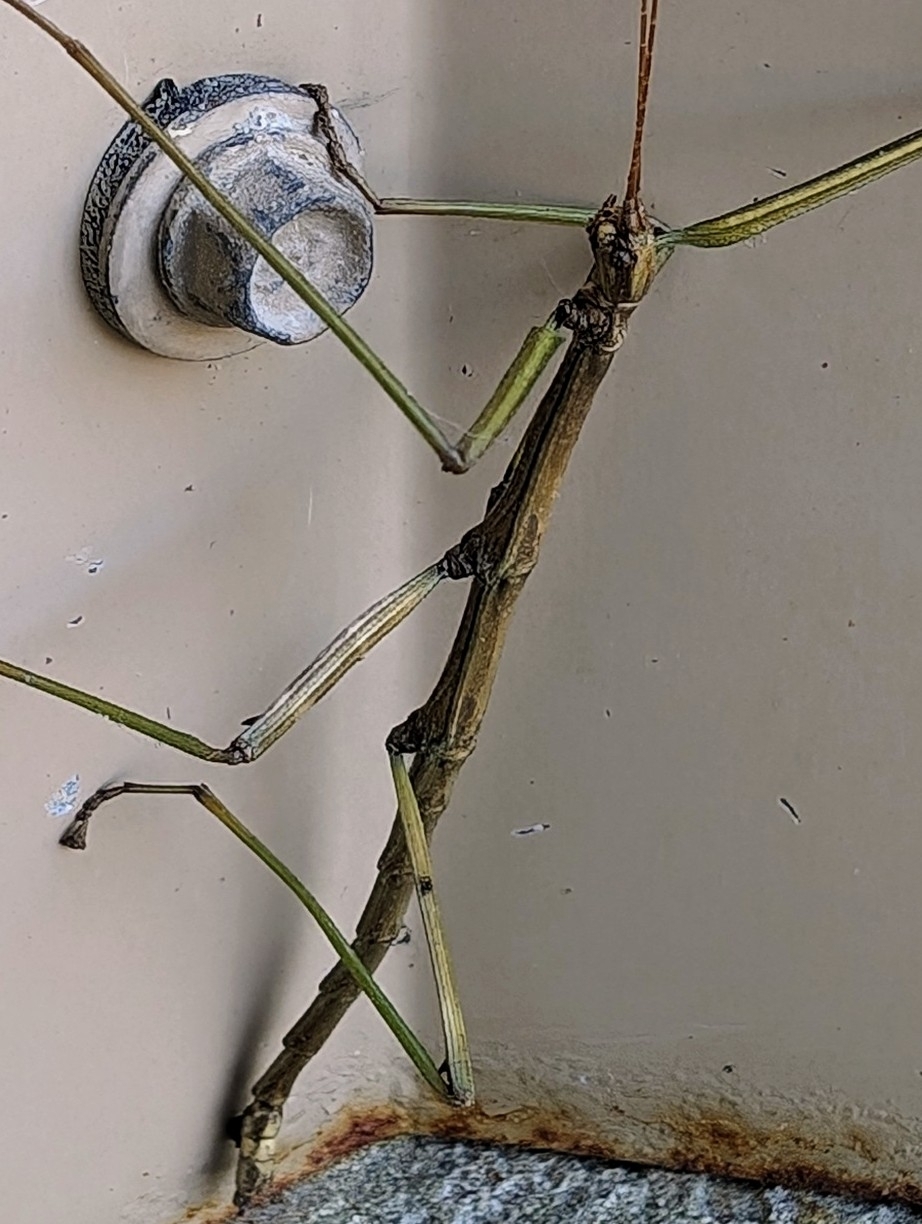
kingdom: Animalia
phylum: Arthropoda
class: Insecta
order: Phasmida
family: Diapheromeridae
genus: Diapheromera
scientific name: Diapheromera femorata
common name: Common american walkingstick
